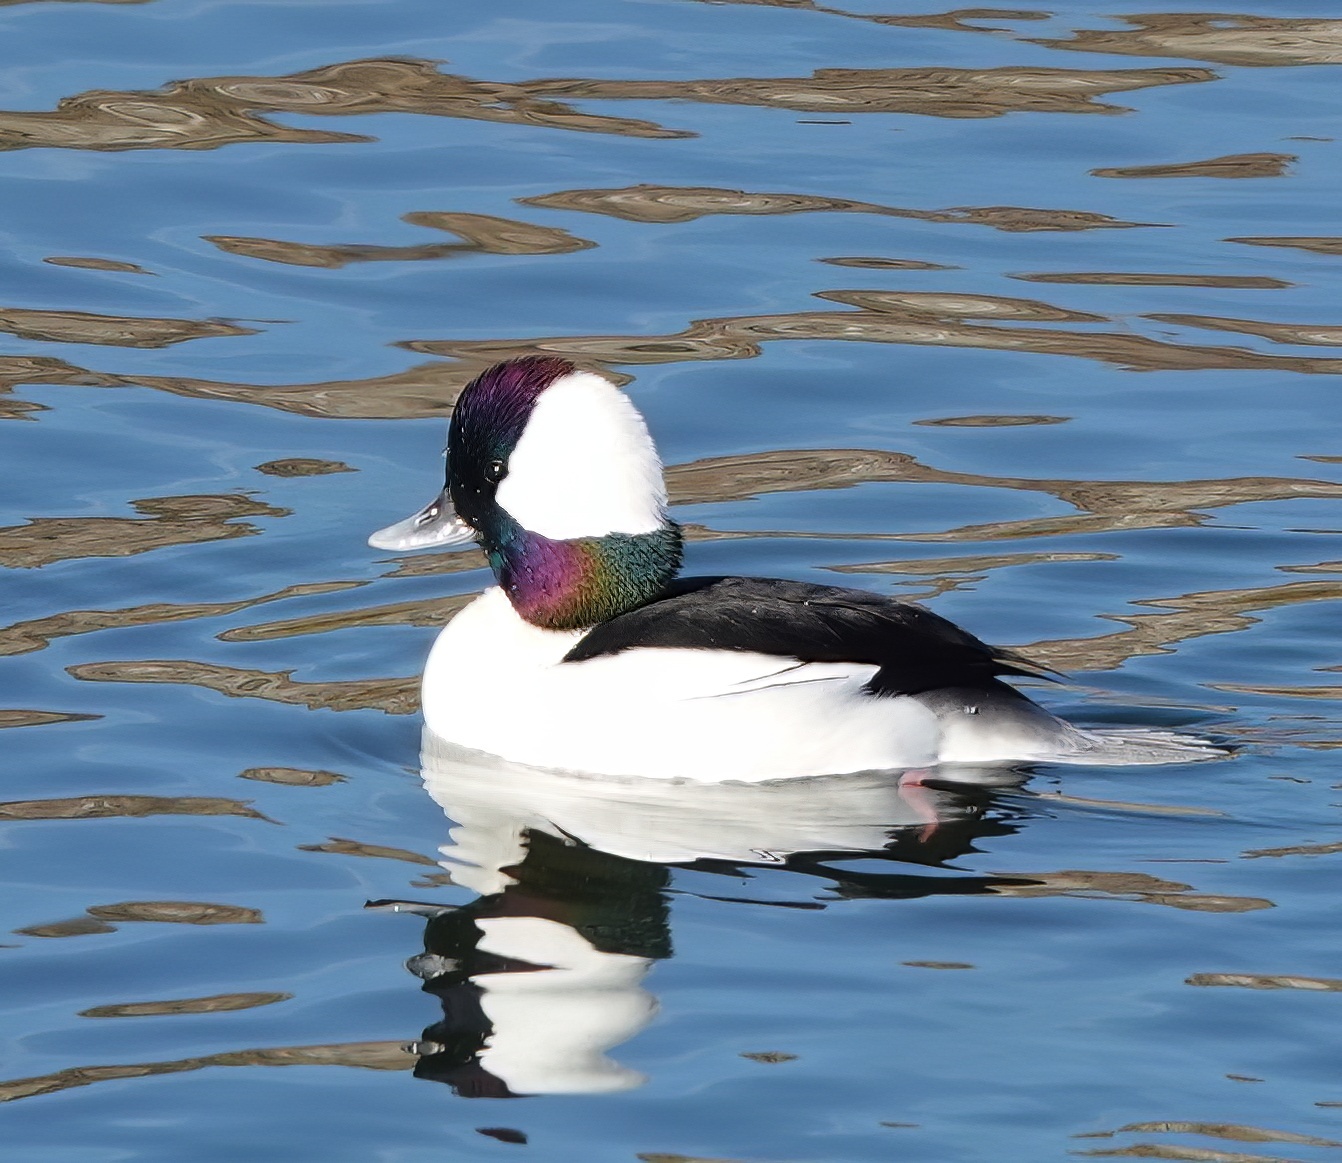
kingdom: Animalia
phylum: Chordata
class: Aves
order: Anseriformes
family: Anatidae
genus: Bucephala
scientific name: Bucephala albeola
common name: Bufflehead
